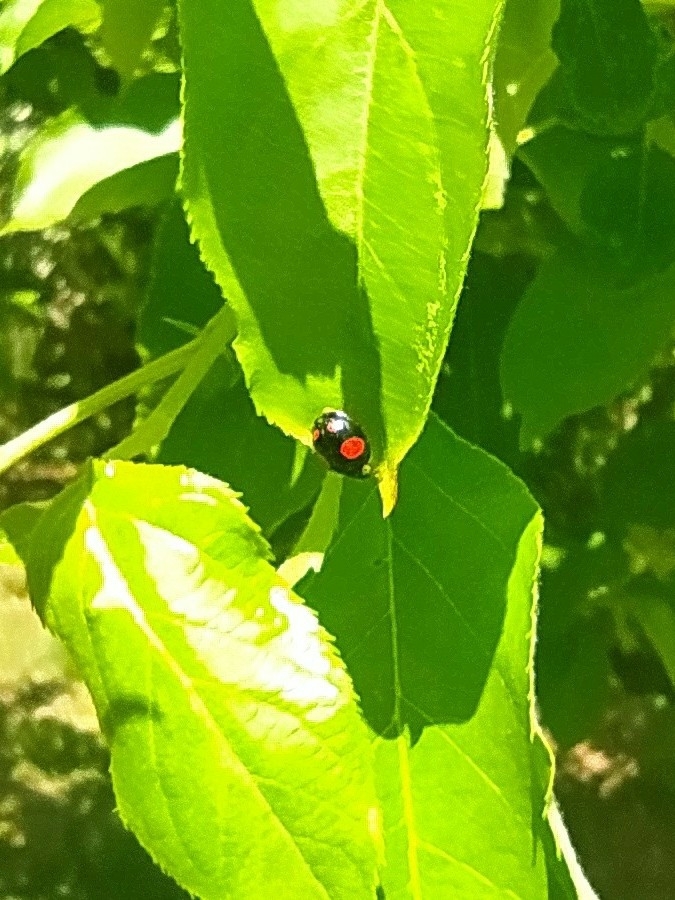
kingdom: Animalia
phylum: Arthropoda
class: Insecta
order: Coleoptera
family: Coccinellidae
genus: Harmonia
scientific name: Harmonia axyridis
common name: Harlequin ladybird
